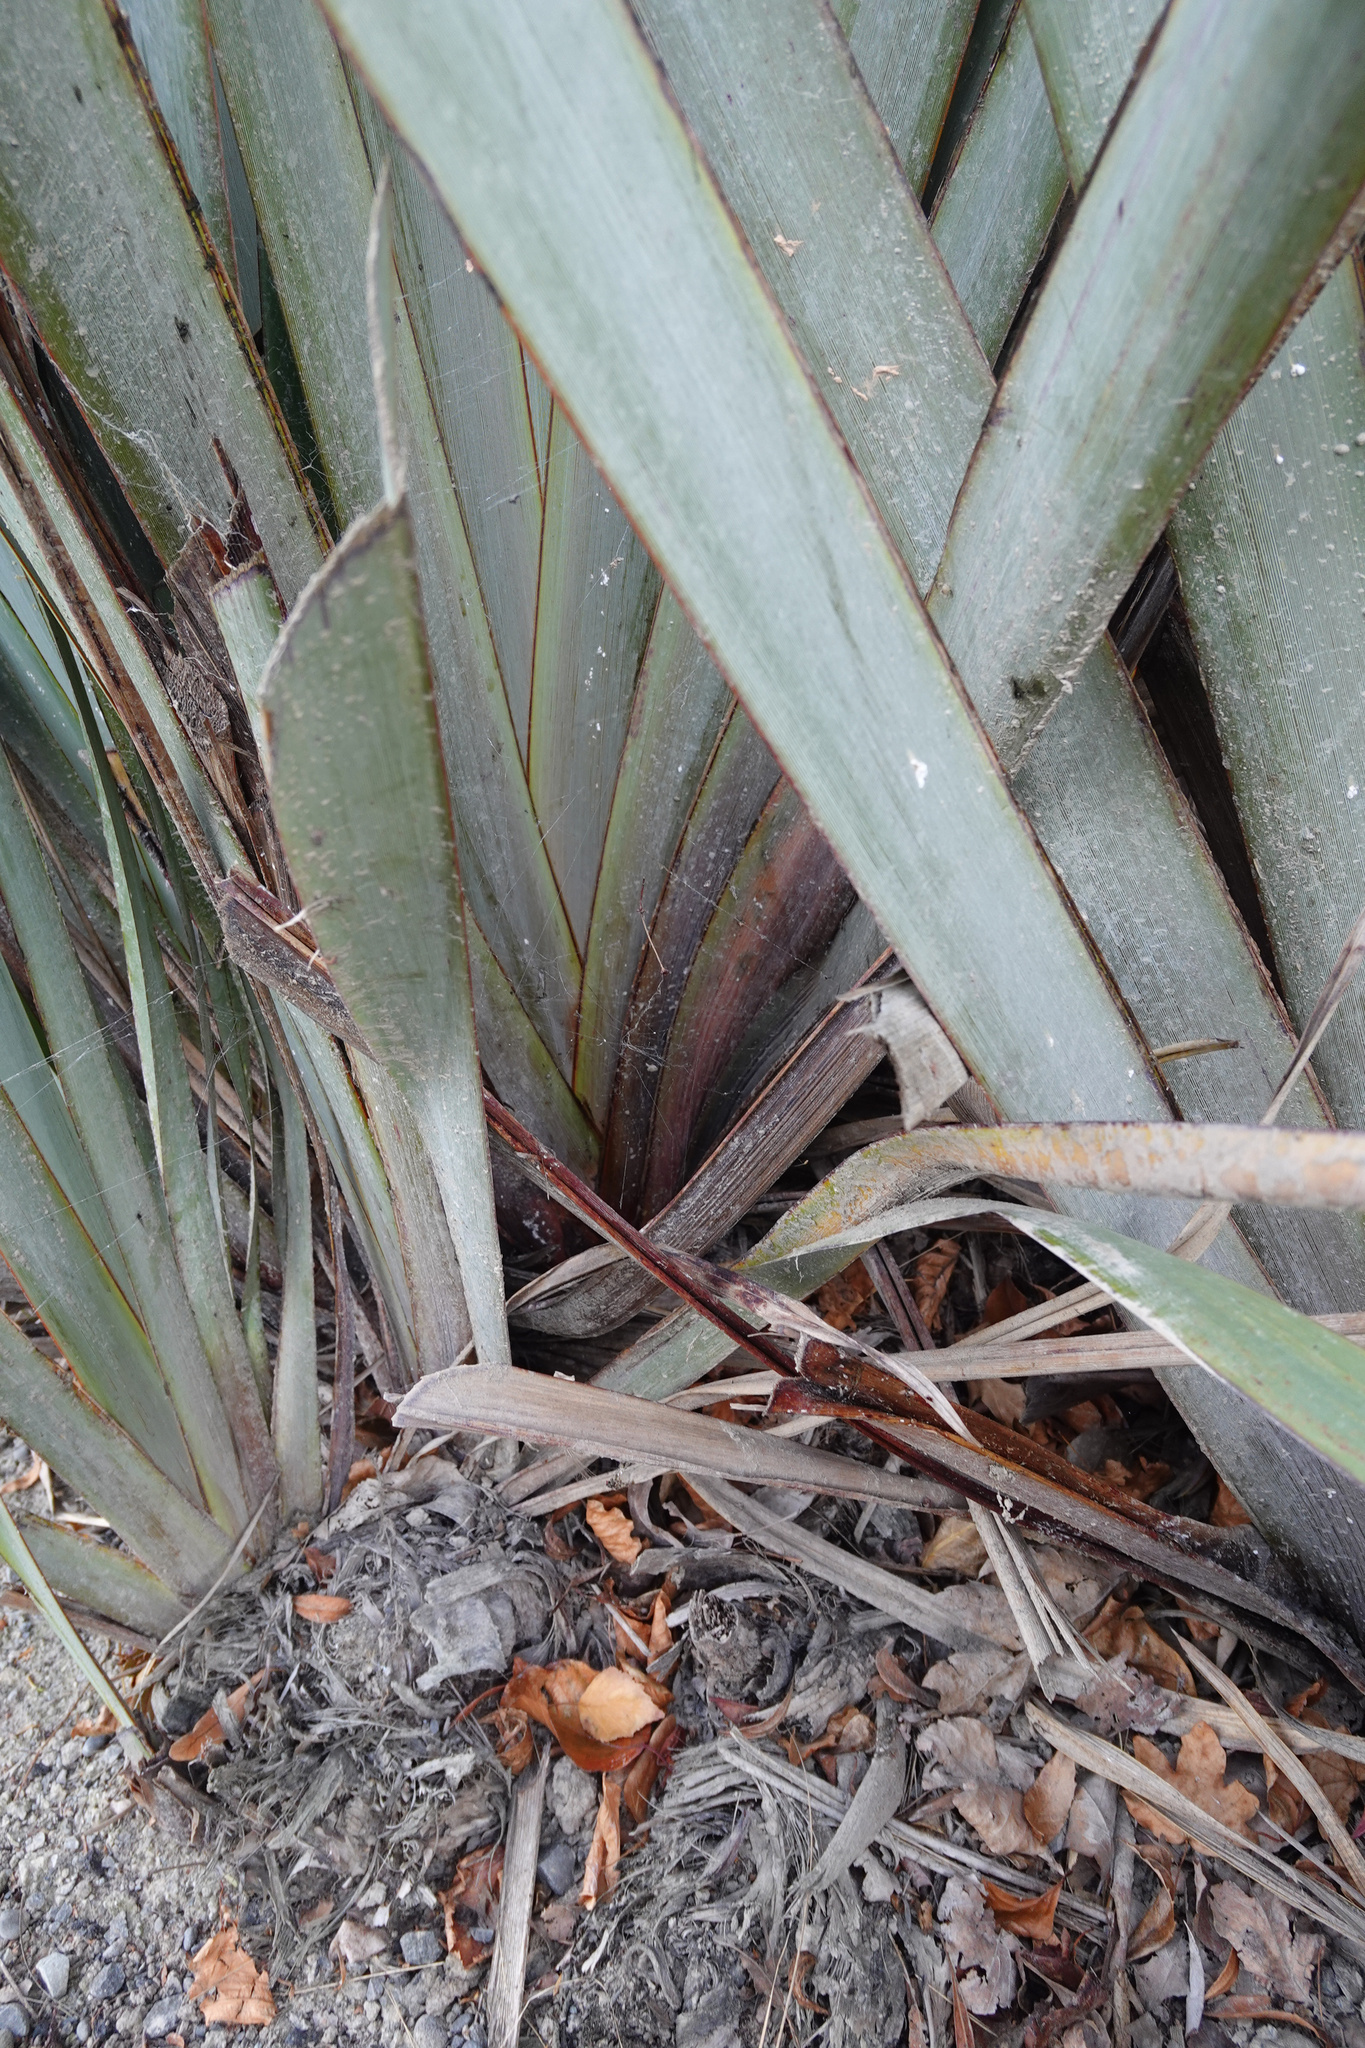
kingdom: Animalia
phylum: Arthropoda
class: Arachnida
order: Araneae
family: Uloboridae
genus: Philoponella
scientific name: Philoponella congregabilis
